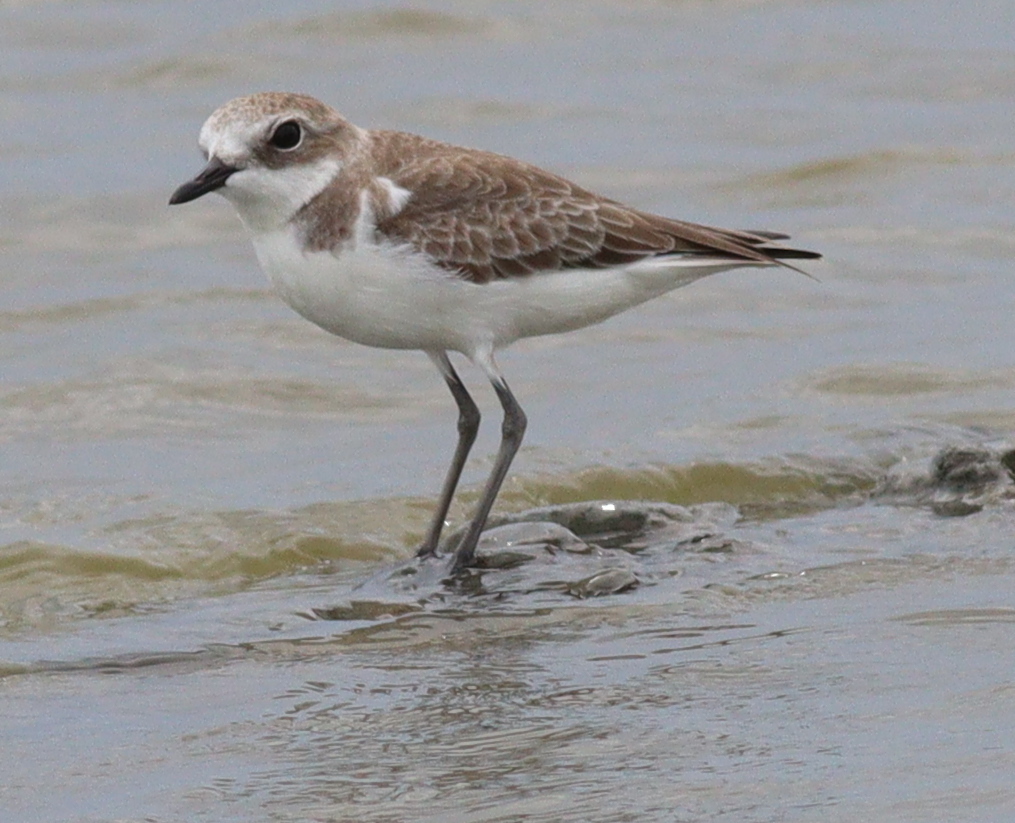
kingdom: Animalia
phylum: Chordata
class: Aves
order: Charadriiformes
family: Charadriidae
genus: Anarhynchus
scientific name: Anarhynchus
